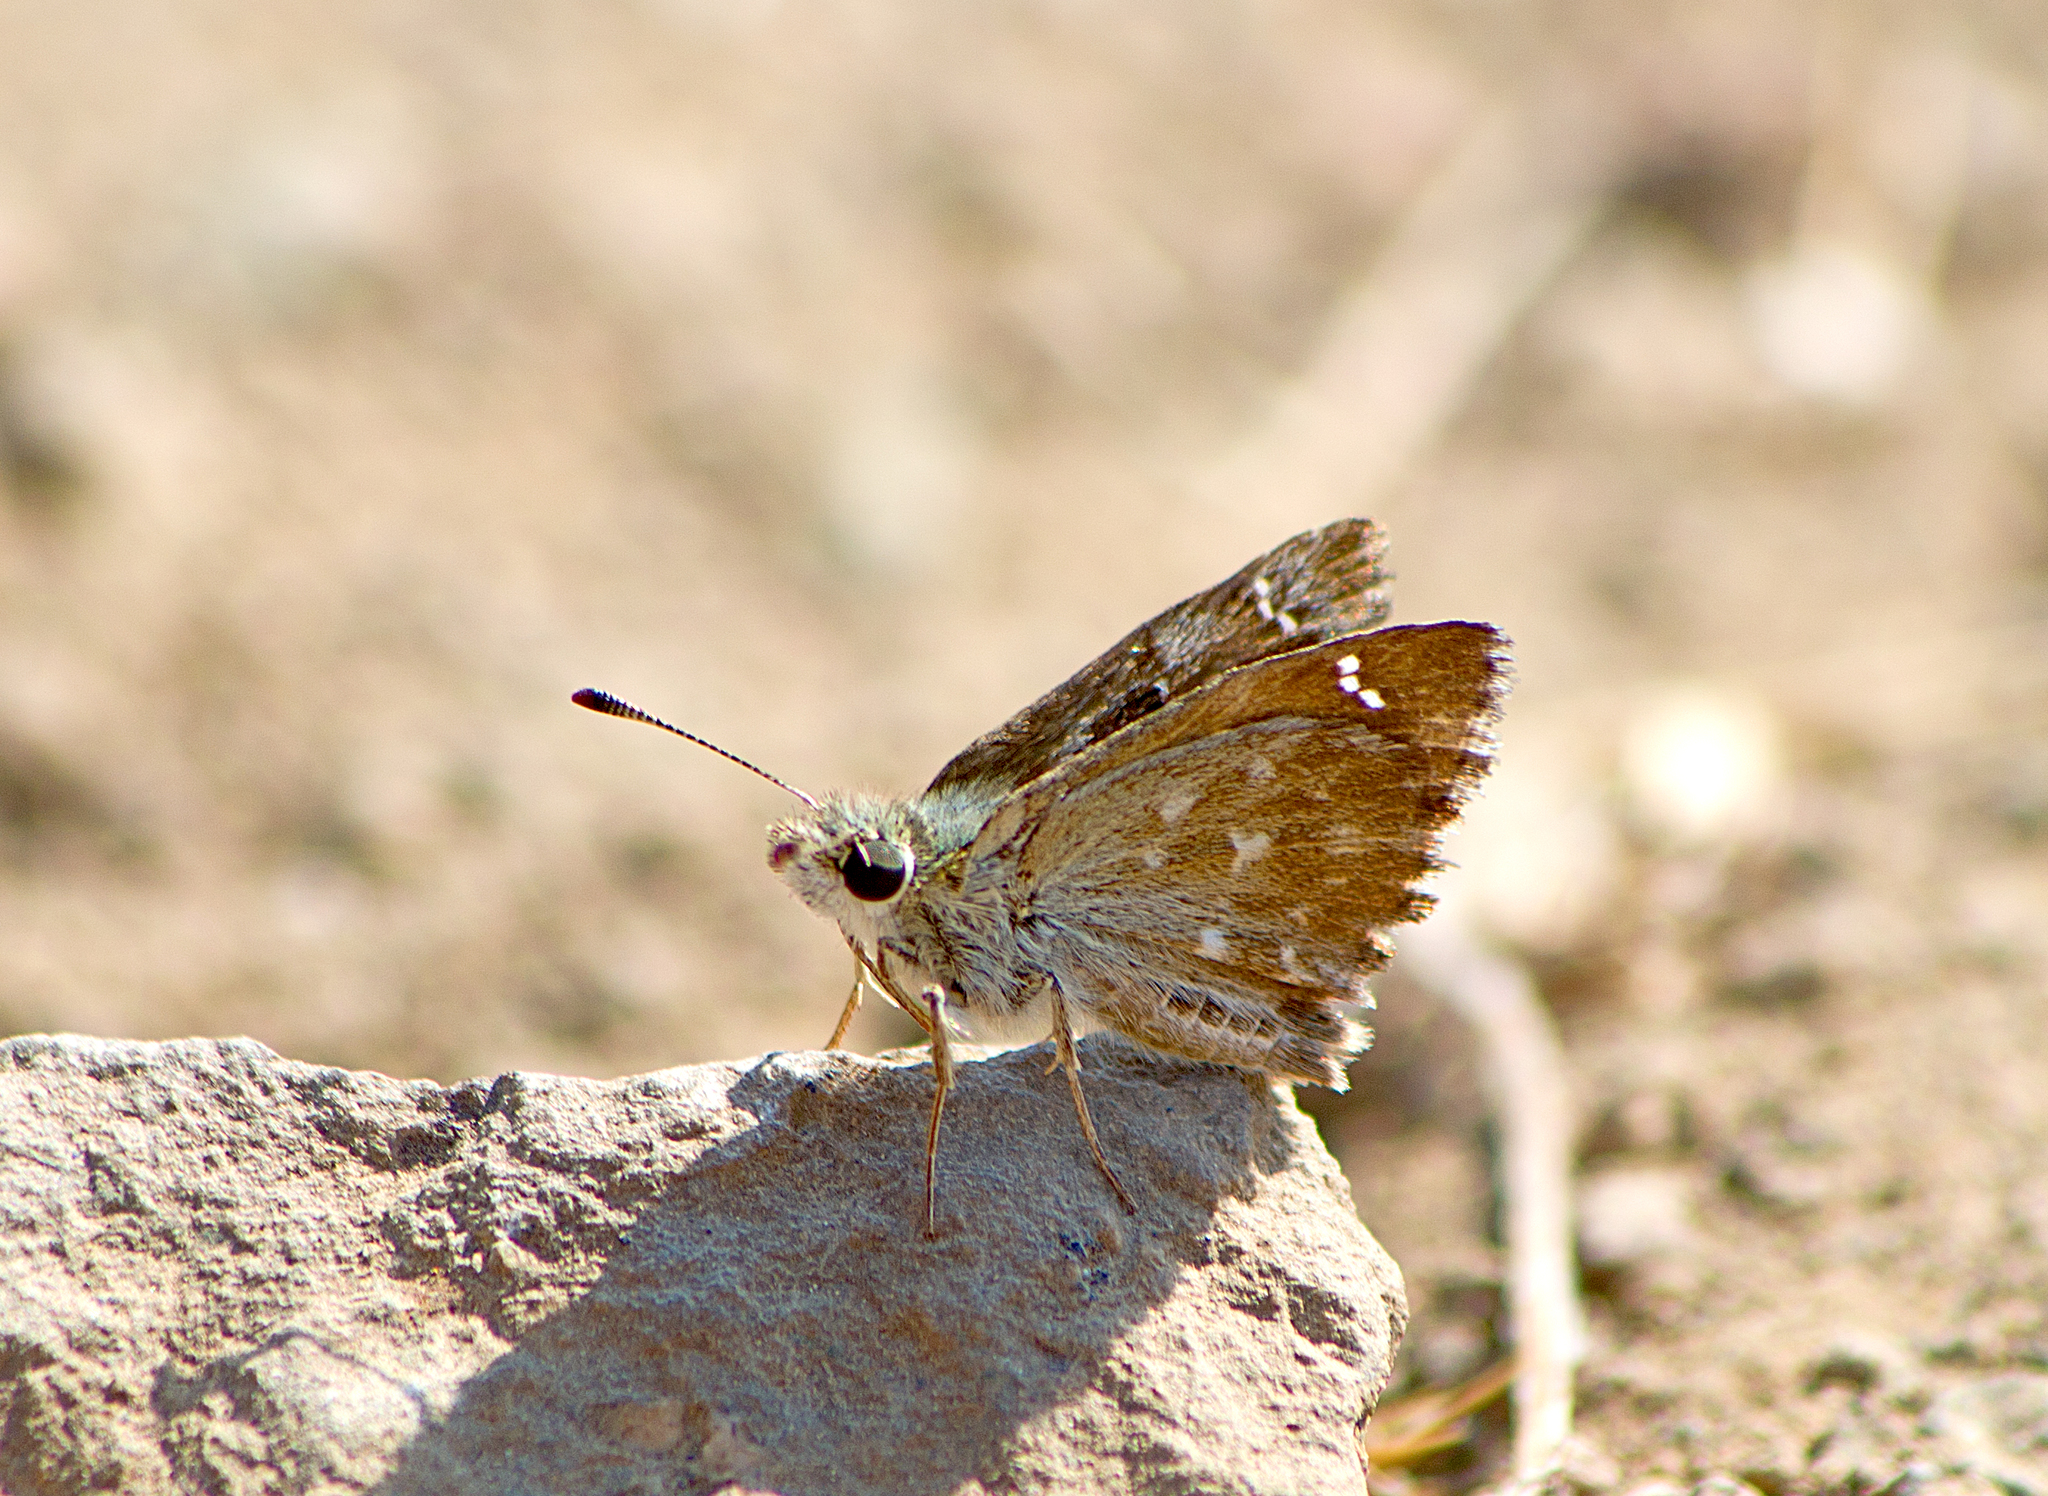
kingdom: Animalia
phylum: Arthropoda
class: Insecta
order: Lepidoptera
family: Hesperiidae
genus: Carcharodus
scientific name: Carcharodus alceae
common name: Mallow skipper
